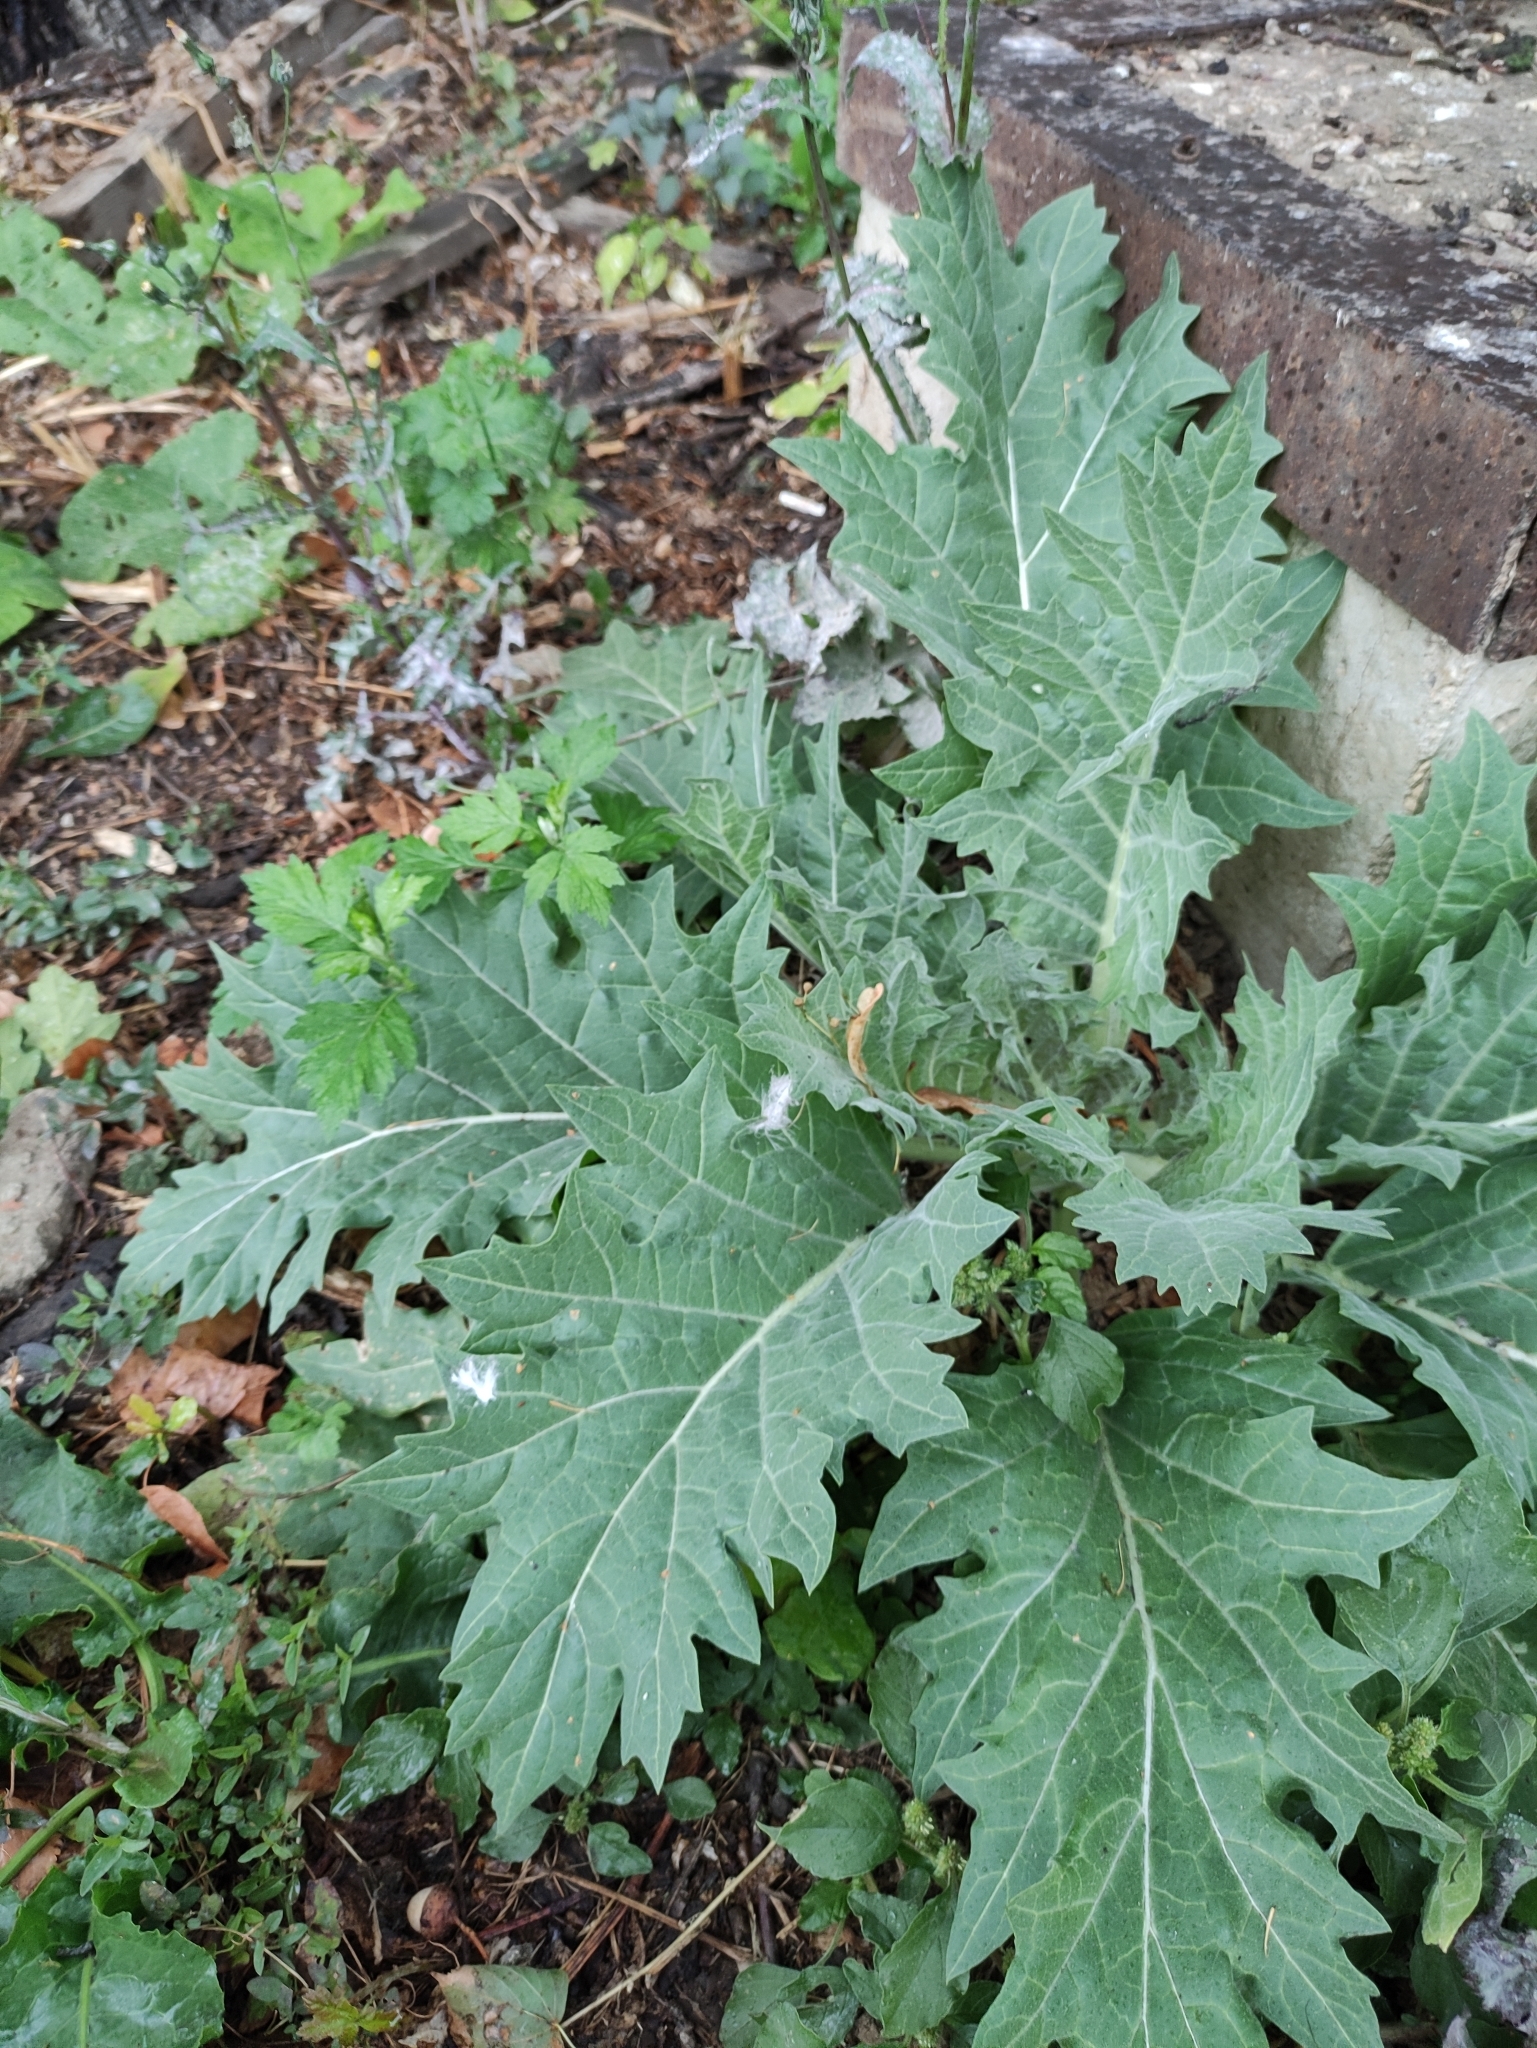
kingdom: Plantae
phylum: Tracheophyta
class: Magnoliopsida
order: Solanales
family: Solanaceae
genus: Hyoscyamus
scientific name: Hyoscyamus niger
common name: Henbane
